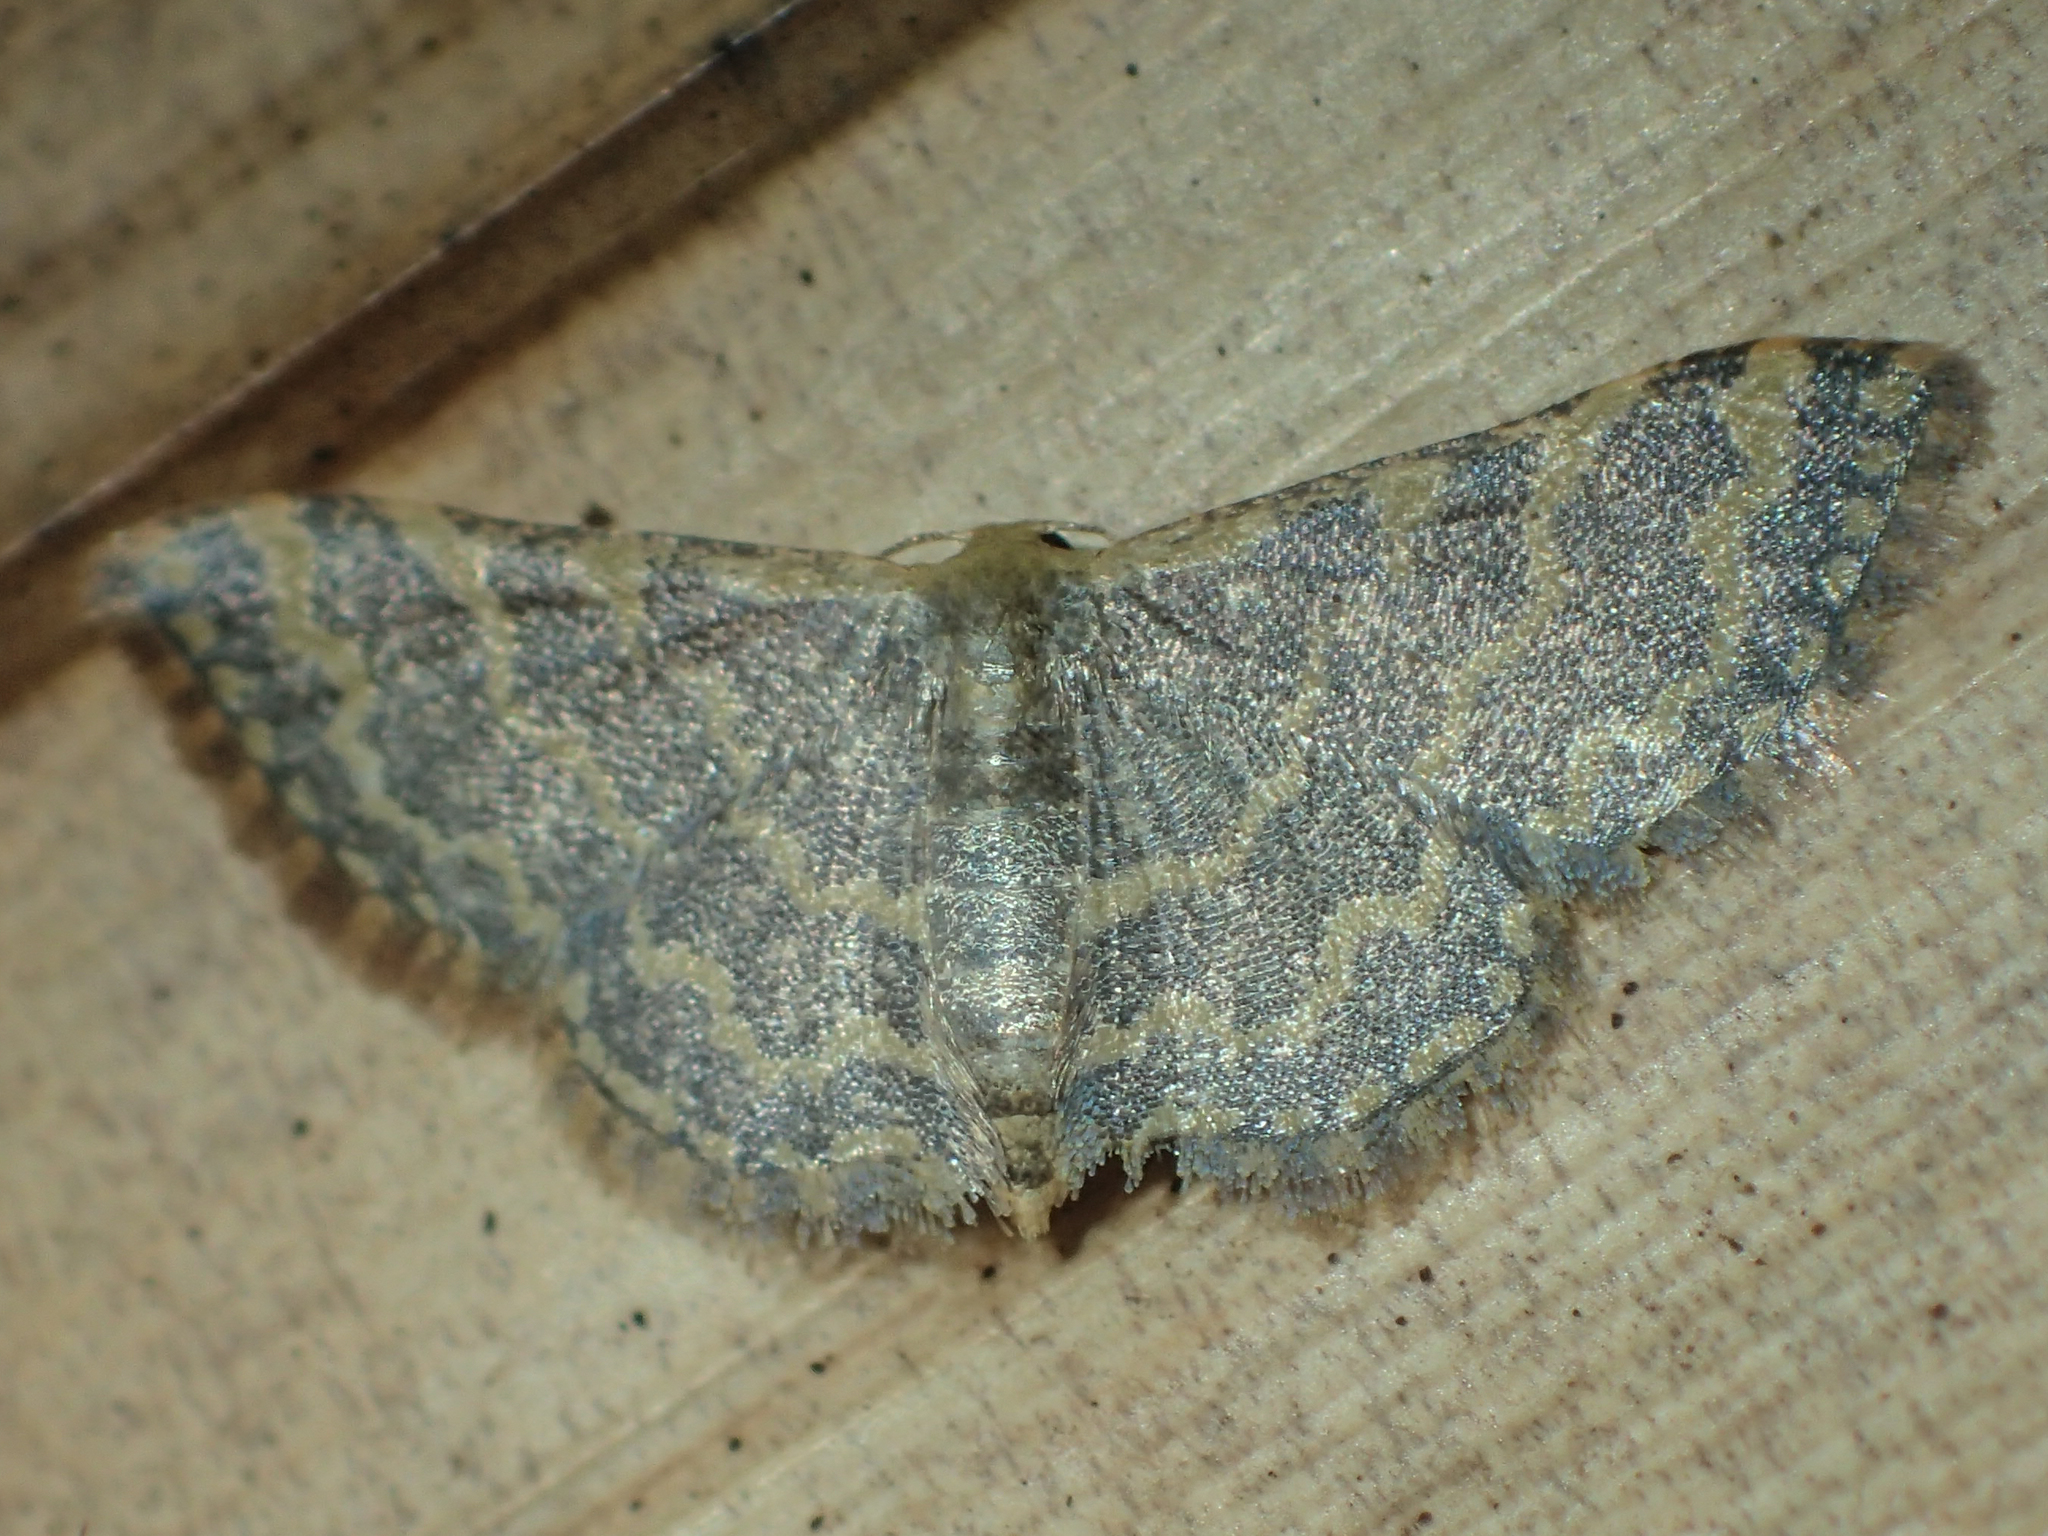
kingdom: Animalia
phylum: Arthropoda
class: Insecta
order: Lepidoptera
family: Geometridae
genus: Idaea
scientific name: Idaea costiguttata
